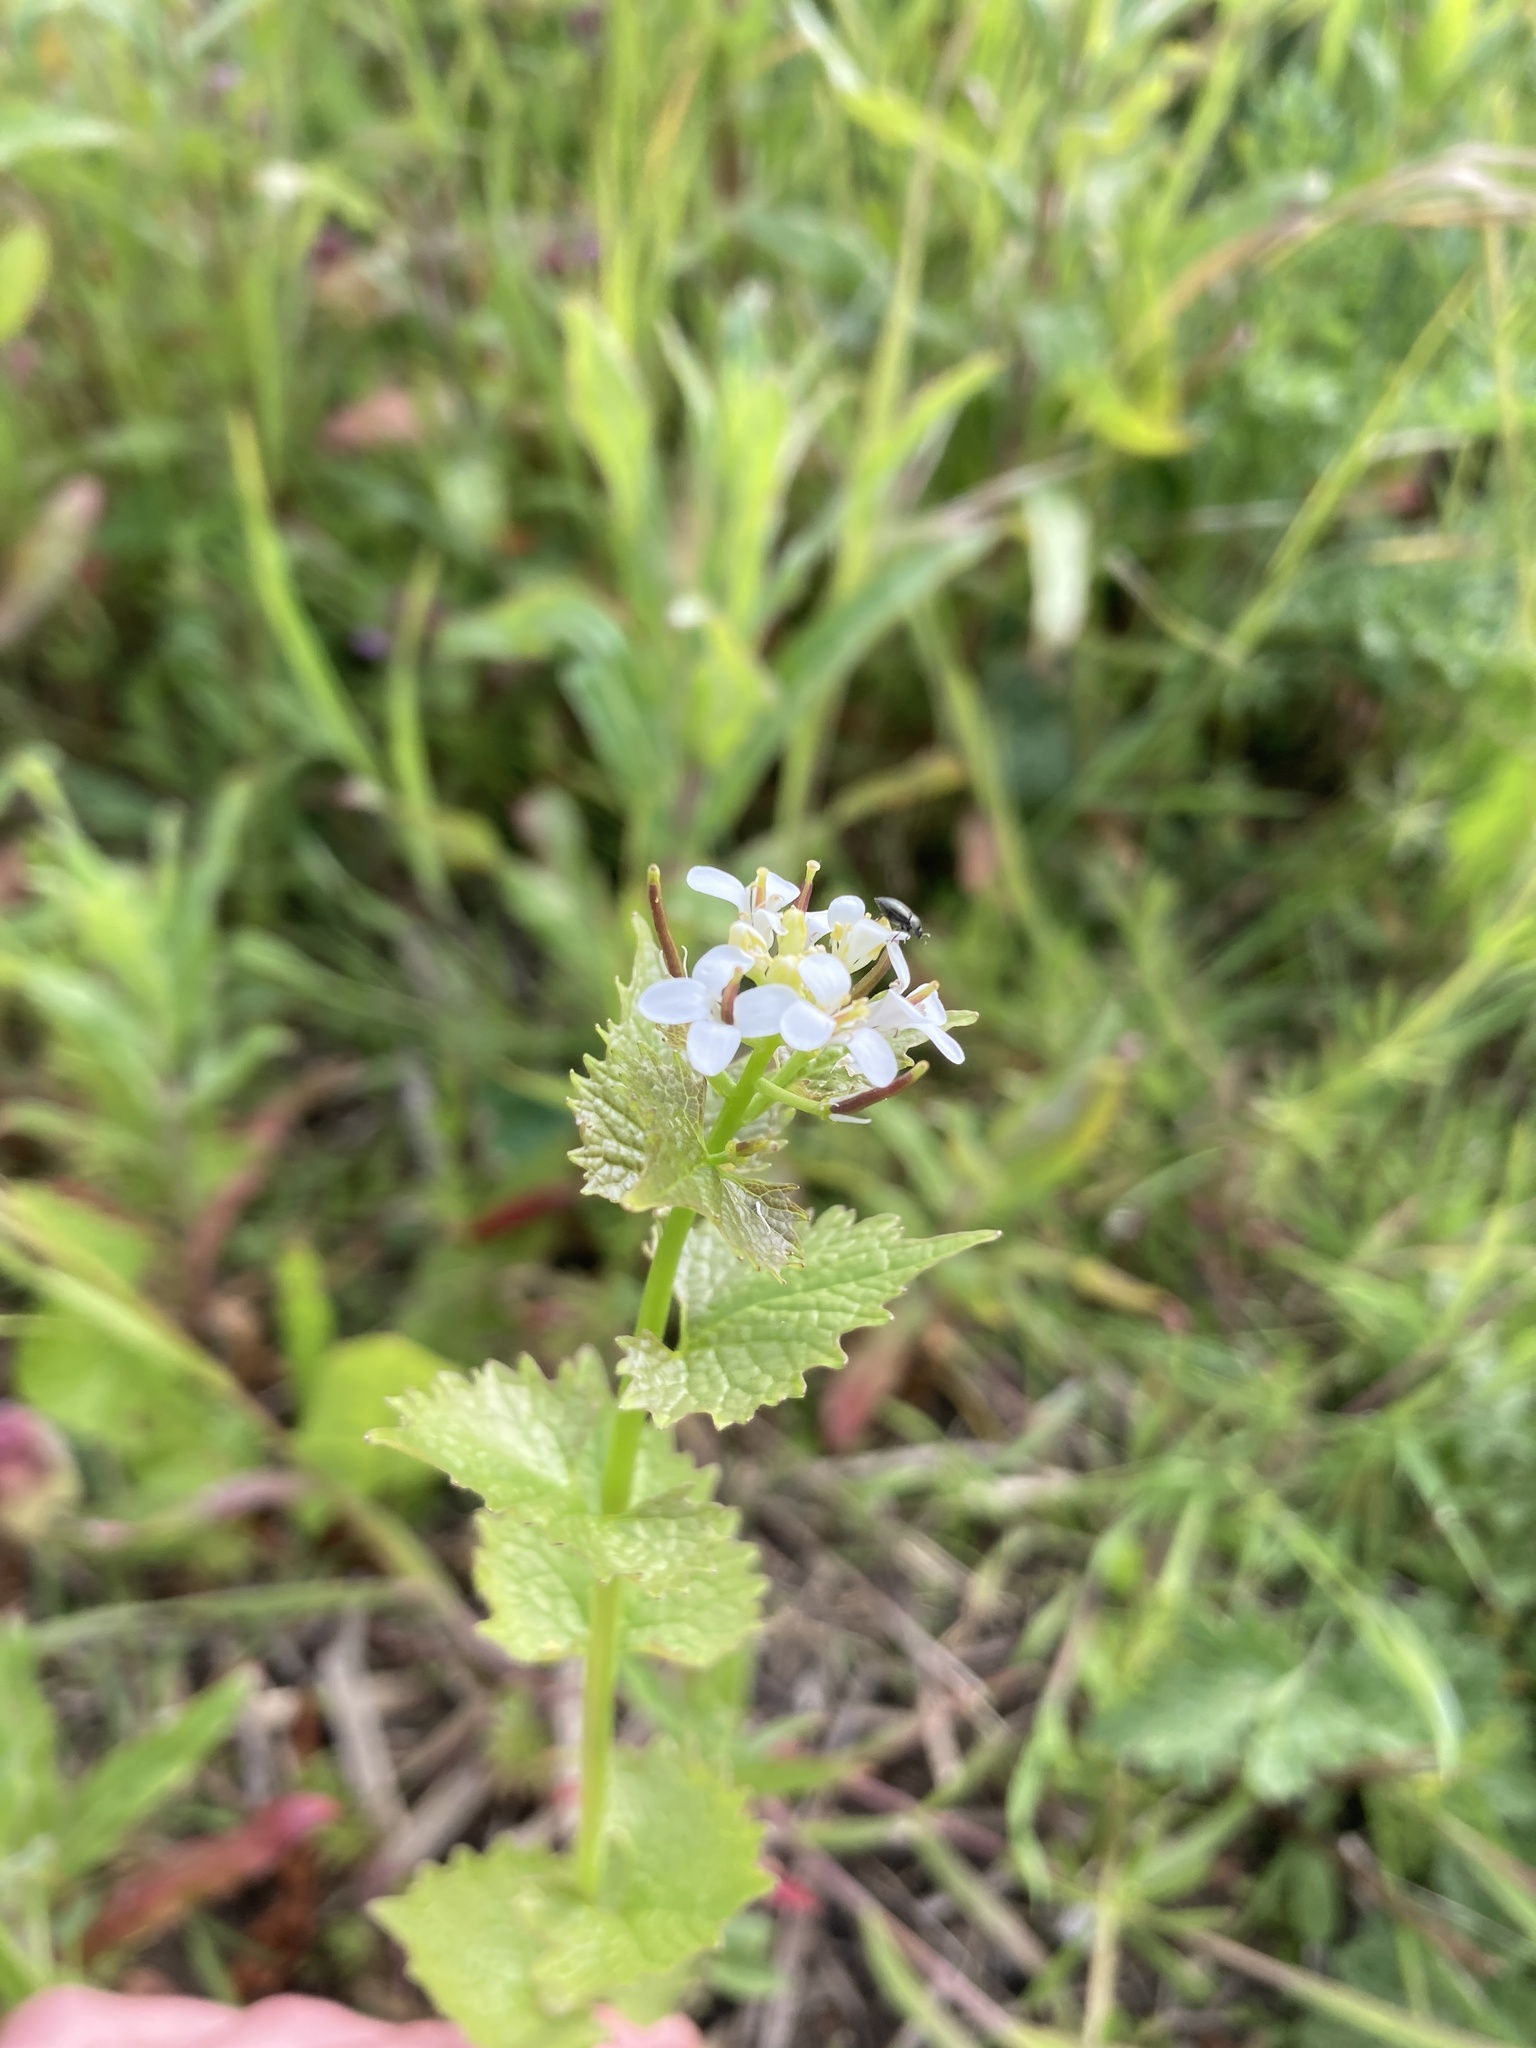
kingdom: Plantae
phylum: Tracheophyta
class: Magnoliopsida
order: Brassicales
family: Brassicaceae
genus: Alliaria
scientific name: Alliaria petiolata
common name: Garlic mustard
